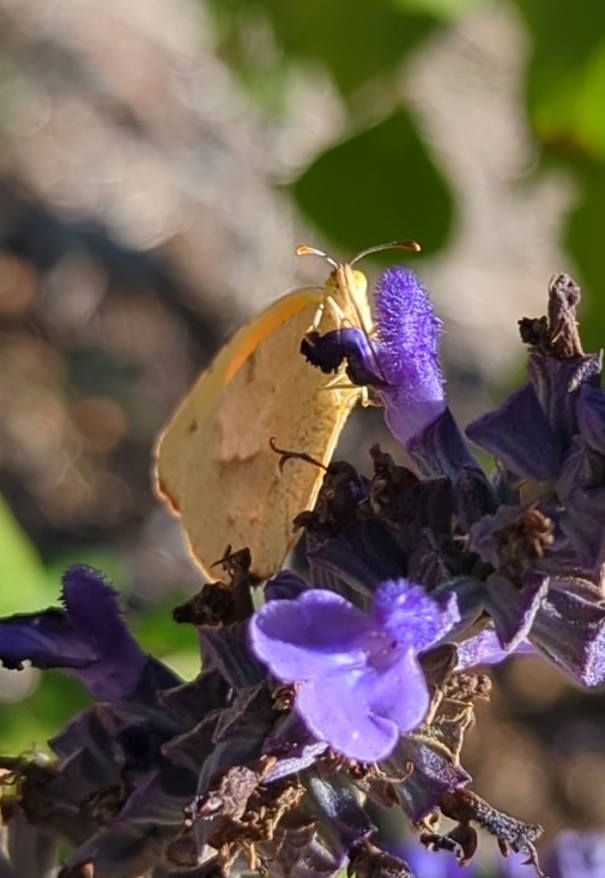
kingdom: Animalia
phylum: Arthropoda
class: Insecta
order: Lepidoptera
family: Pieridae
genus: Abaeis
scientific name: Abaeis nicippe
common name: Sleepy orange
